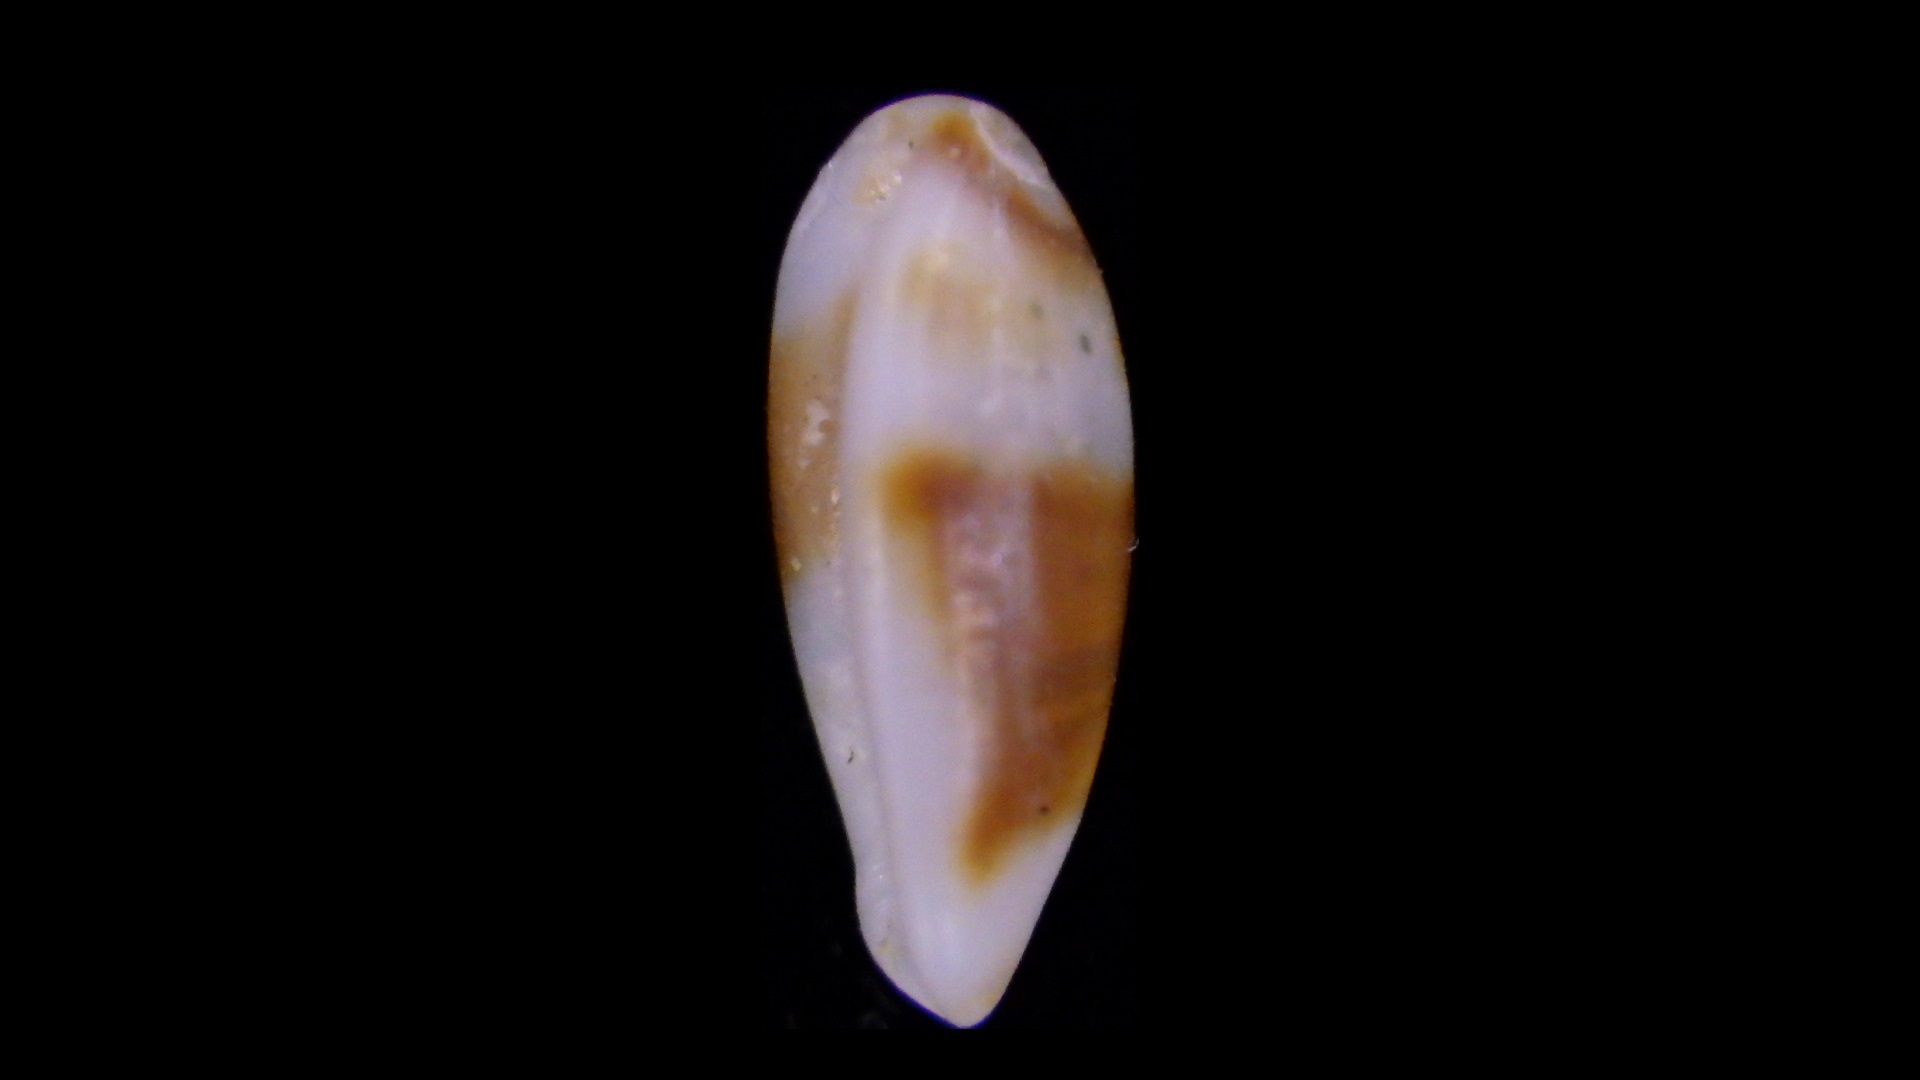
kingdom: Animalia
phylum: Mollusca
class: Gastropoda
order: Neogastropoda
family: Marginellidae
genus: Serrata
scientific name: Serrata fasciata
